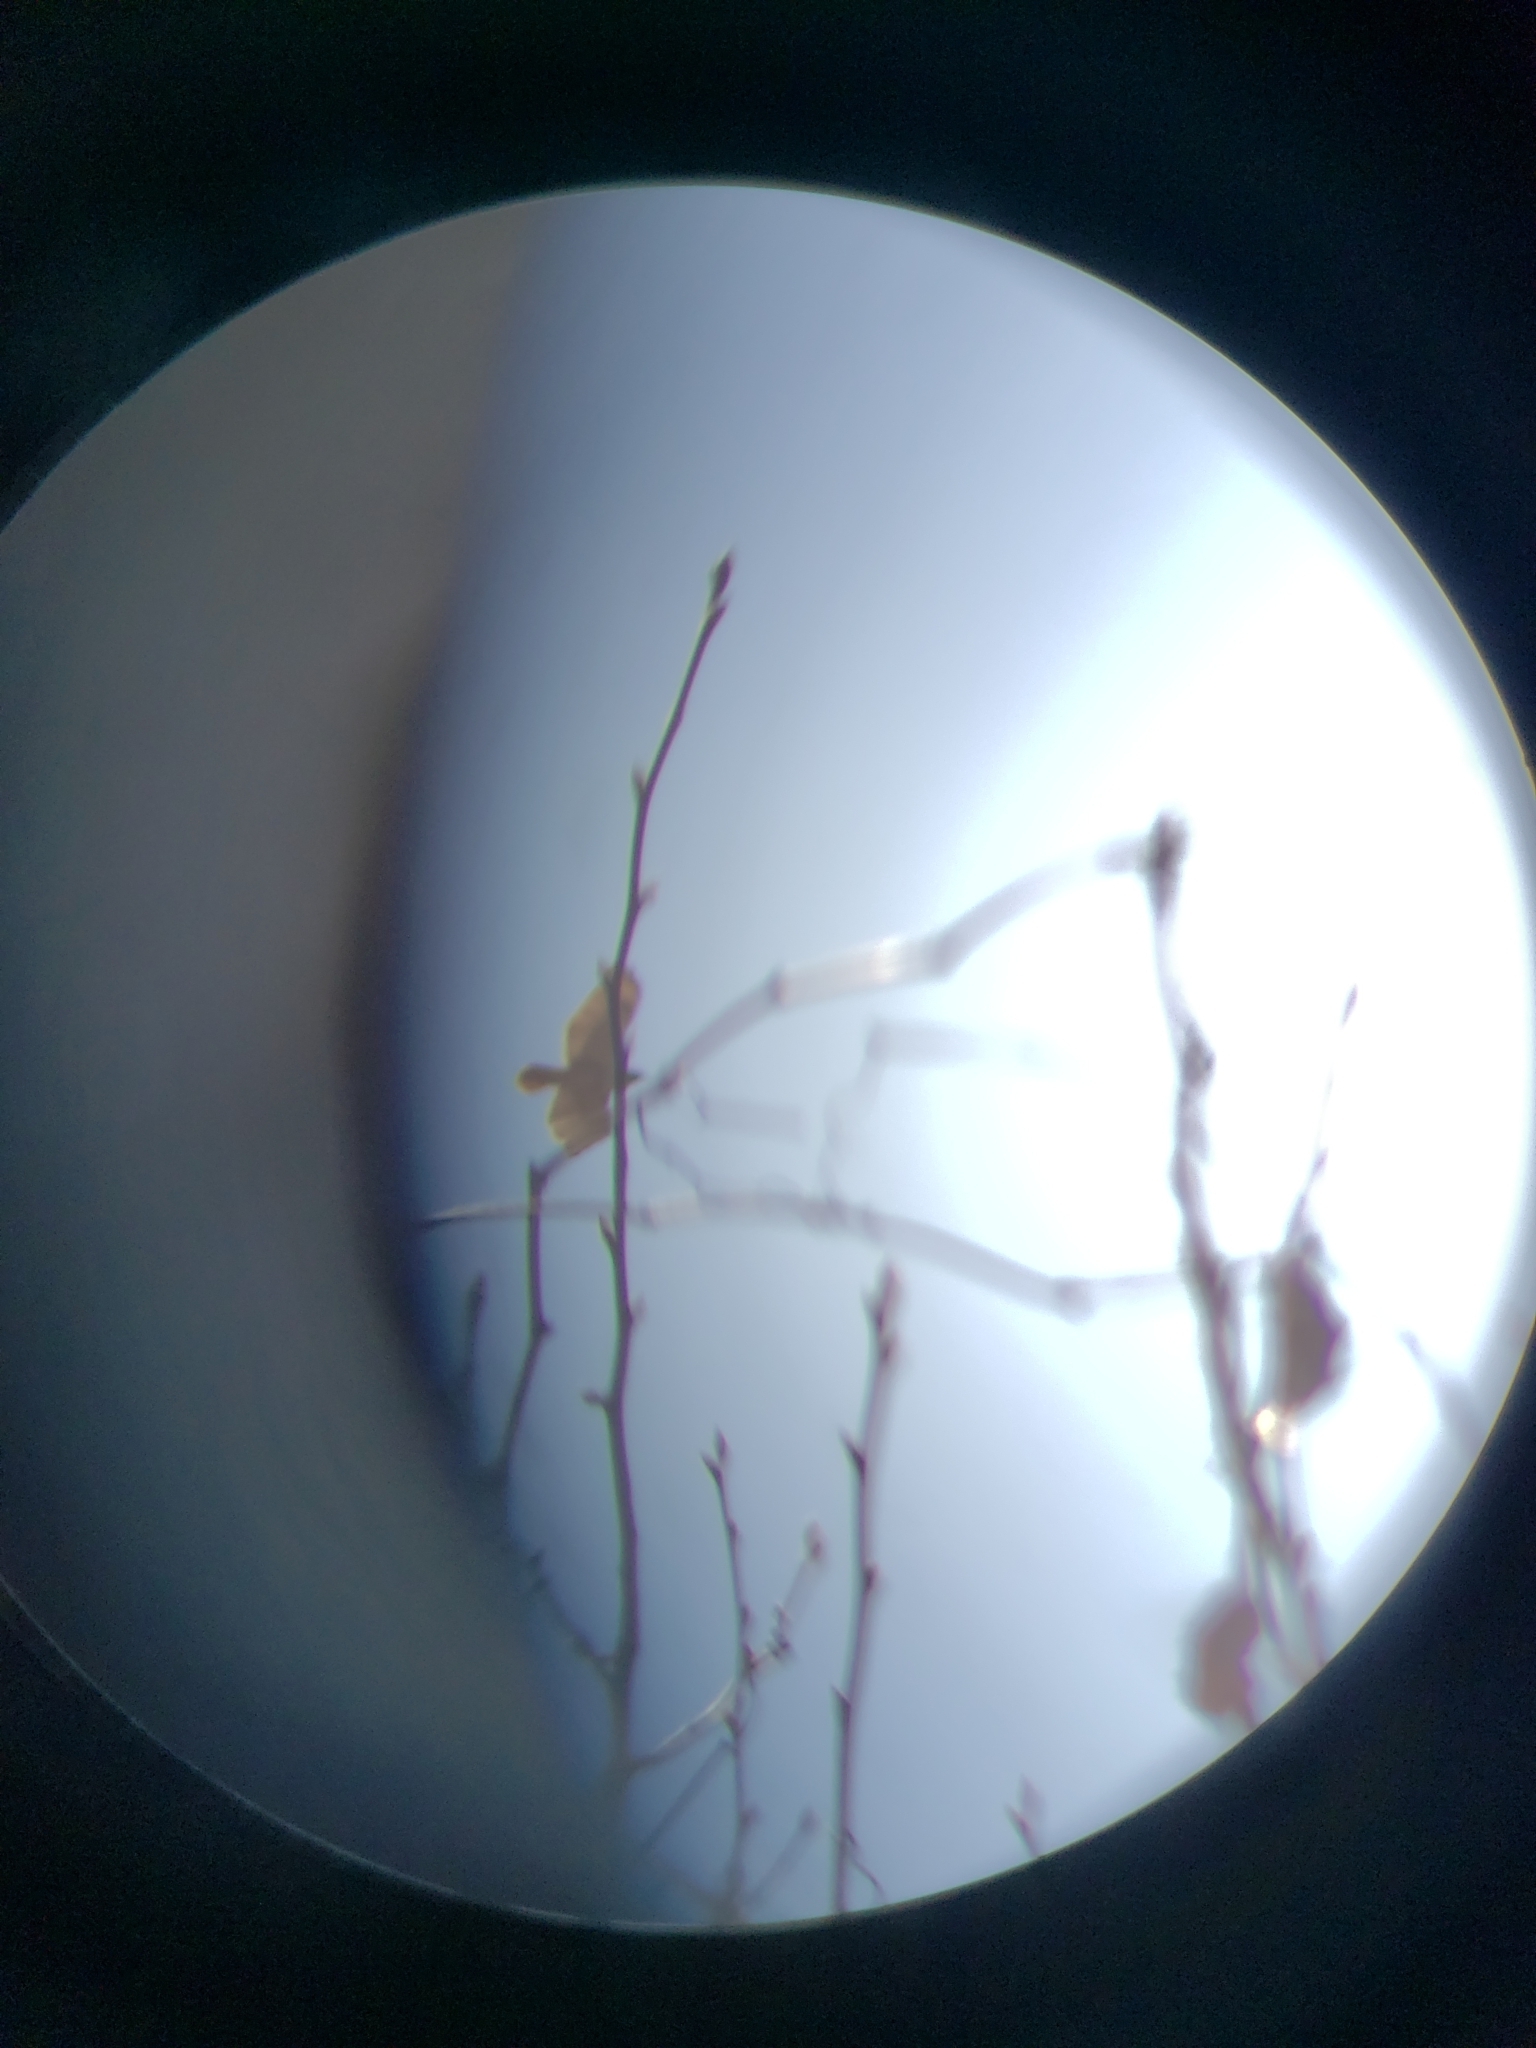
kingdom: Animalia
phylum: Chordata
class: Aves
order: Accipitriformes
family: Accipitridae
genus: Buteo
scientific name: Buteo jamaicensis
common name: Red-tailed hawk
